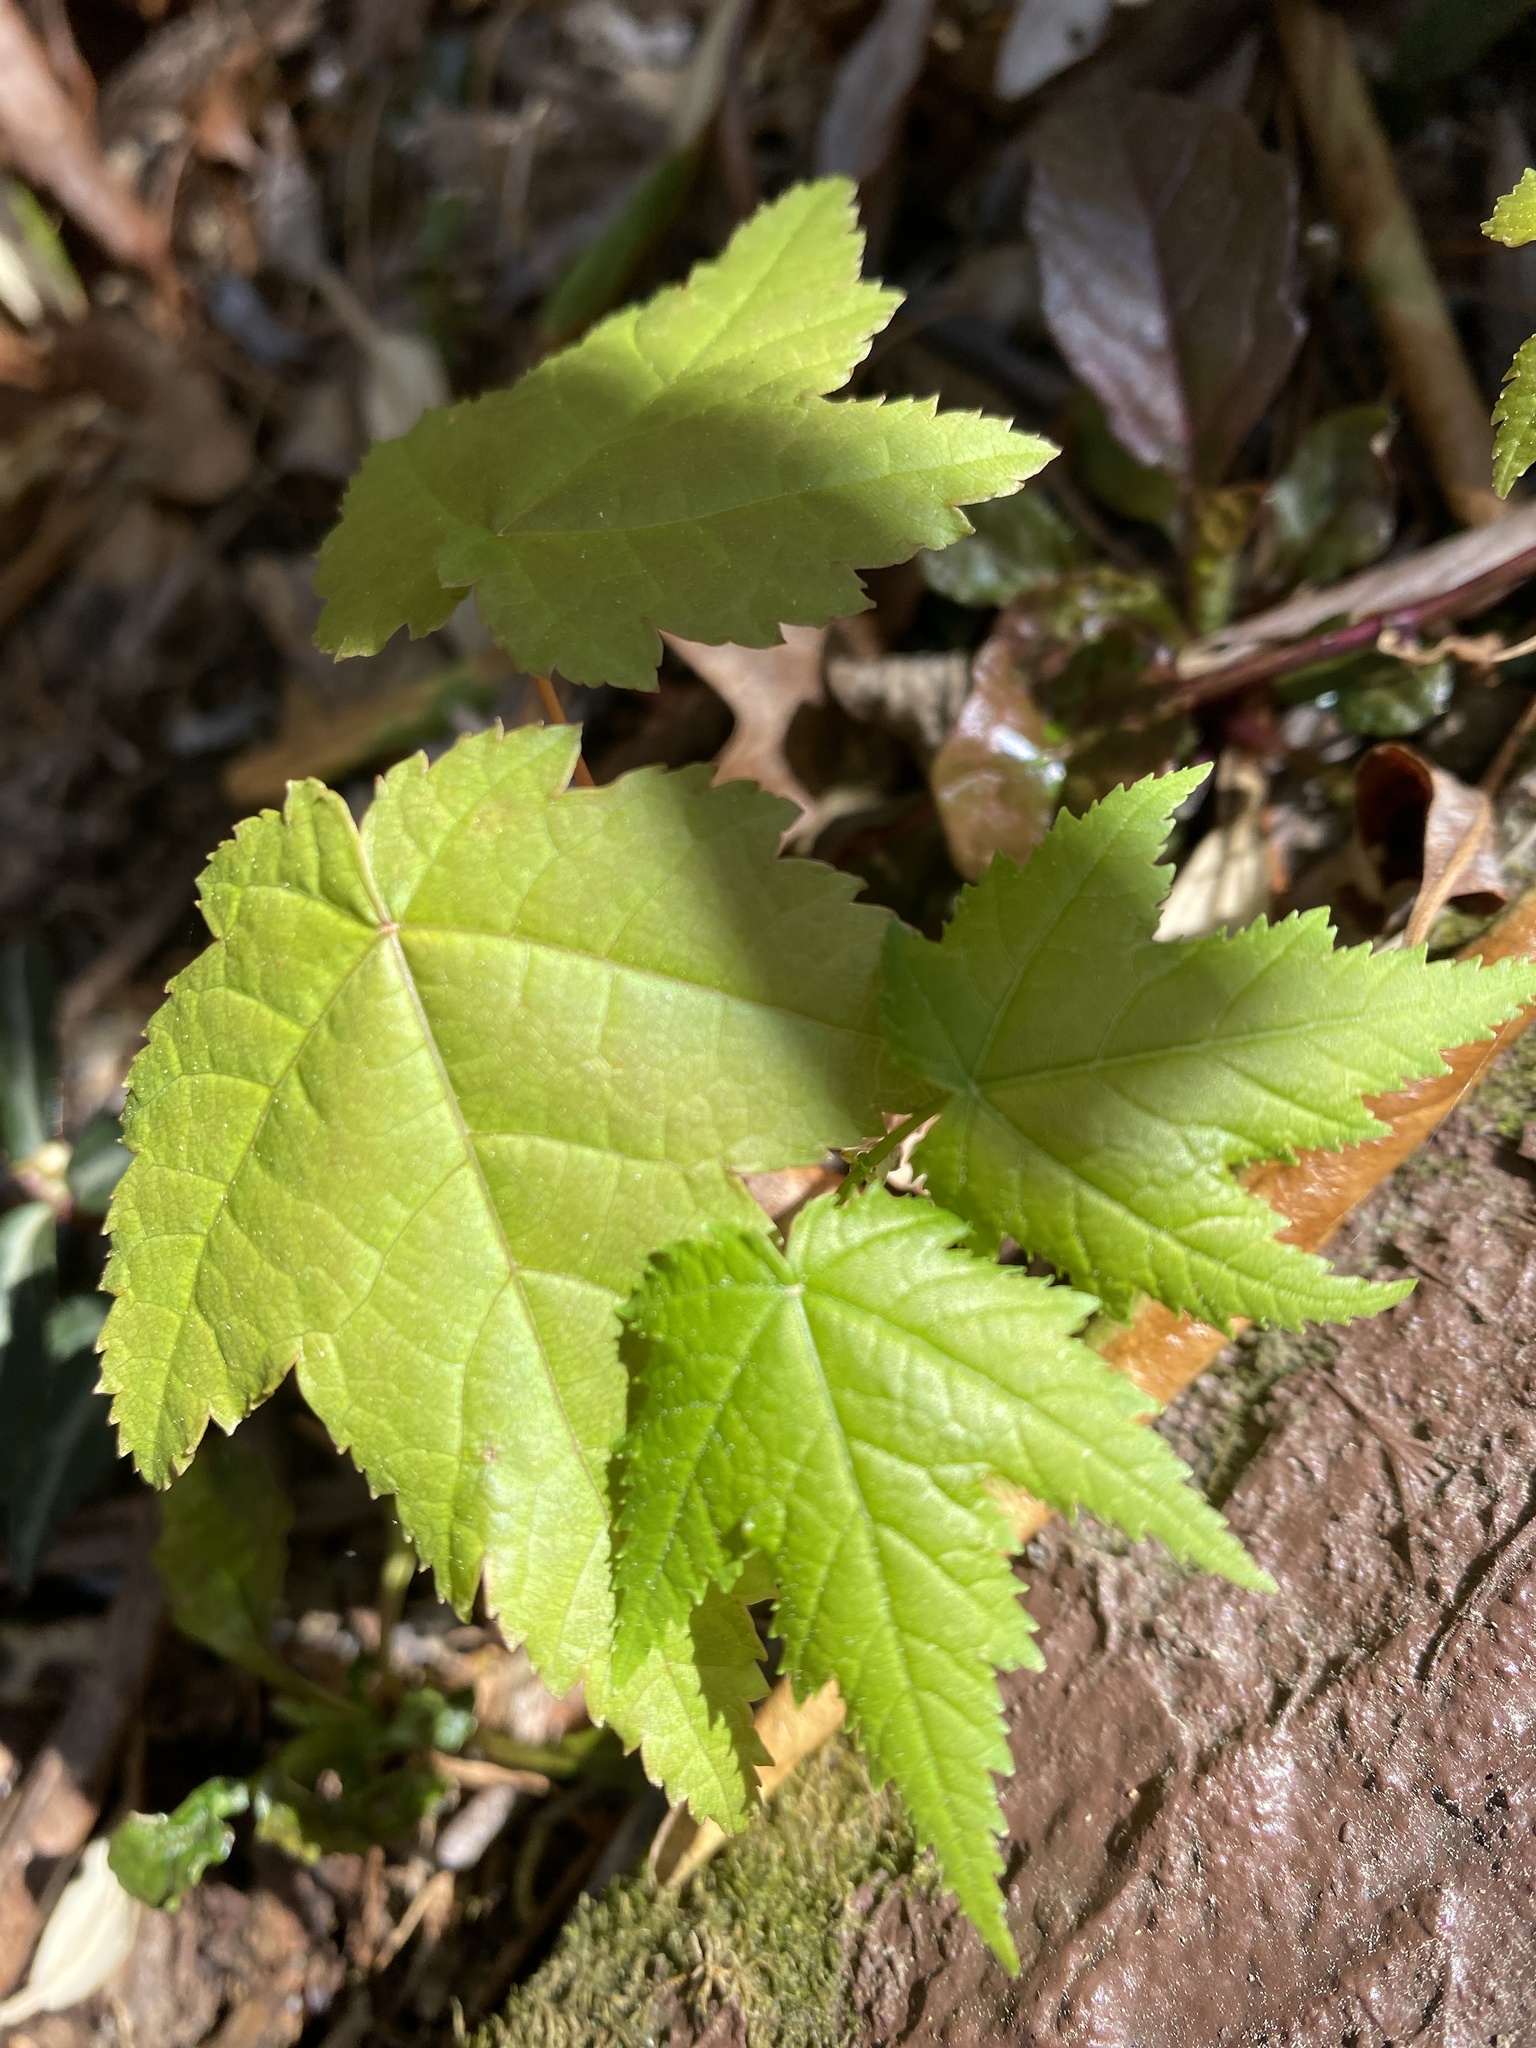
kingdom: Plantae
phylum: Tracheophyta
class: Magnoliopsida
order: Sapindales
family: Sapindaceae
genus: Acer
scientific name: Acer rubrum
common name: Red maple
